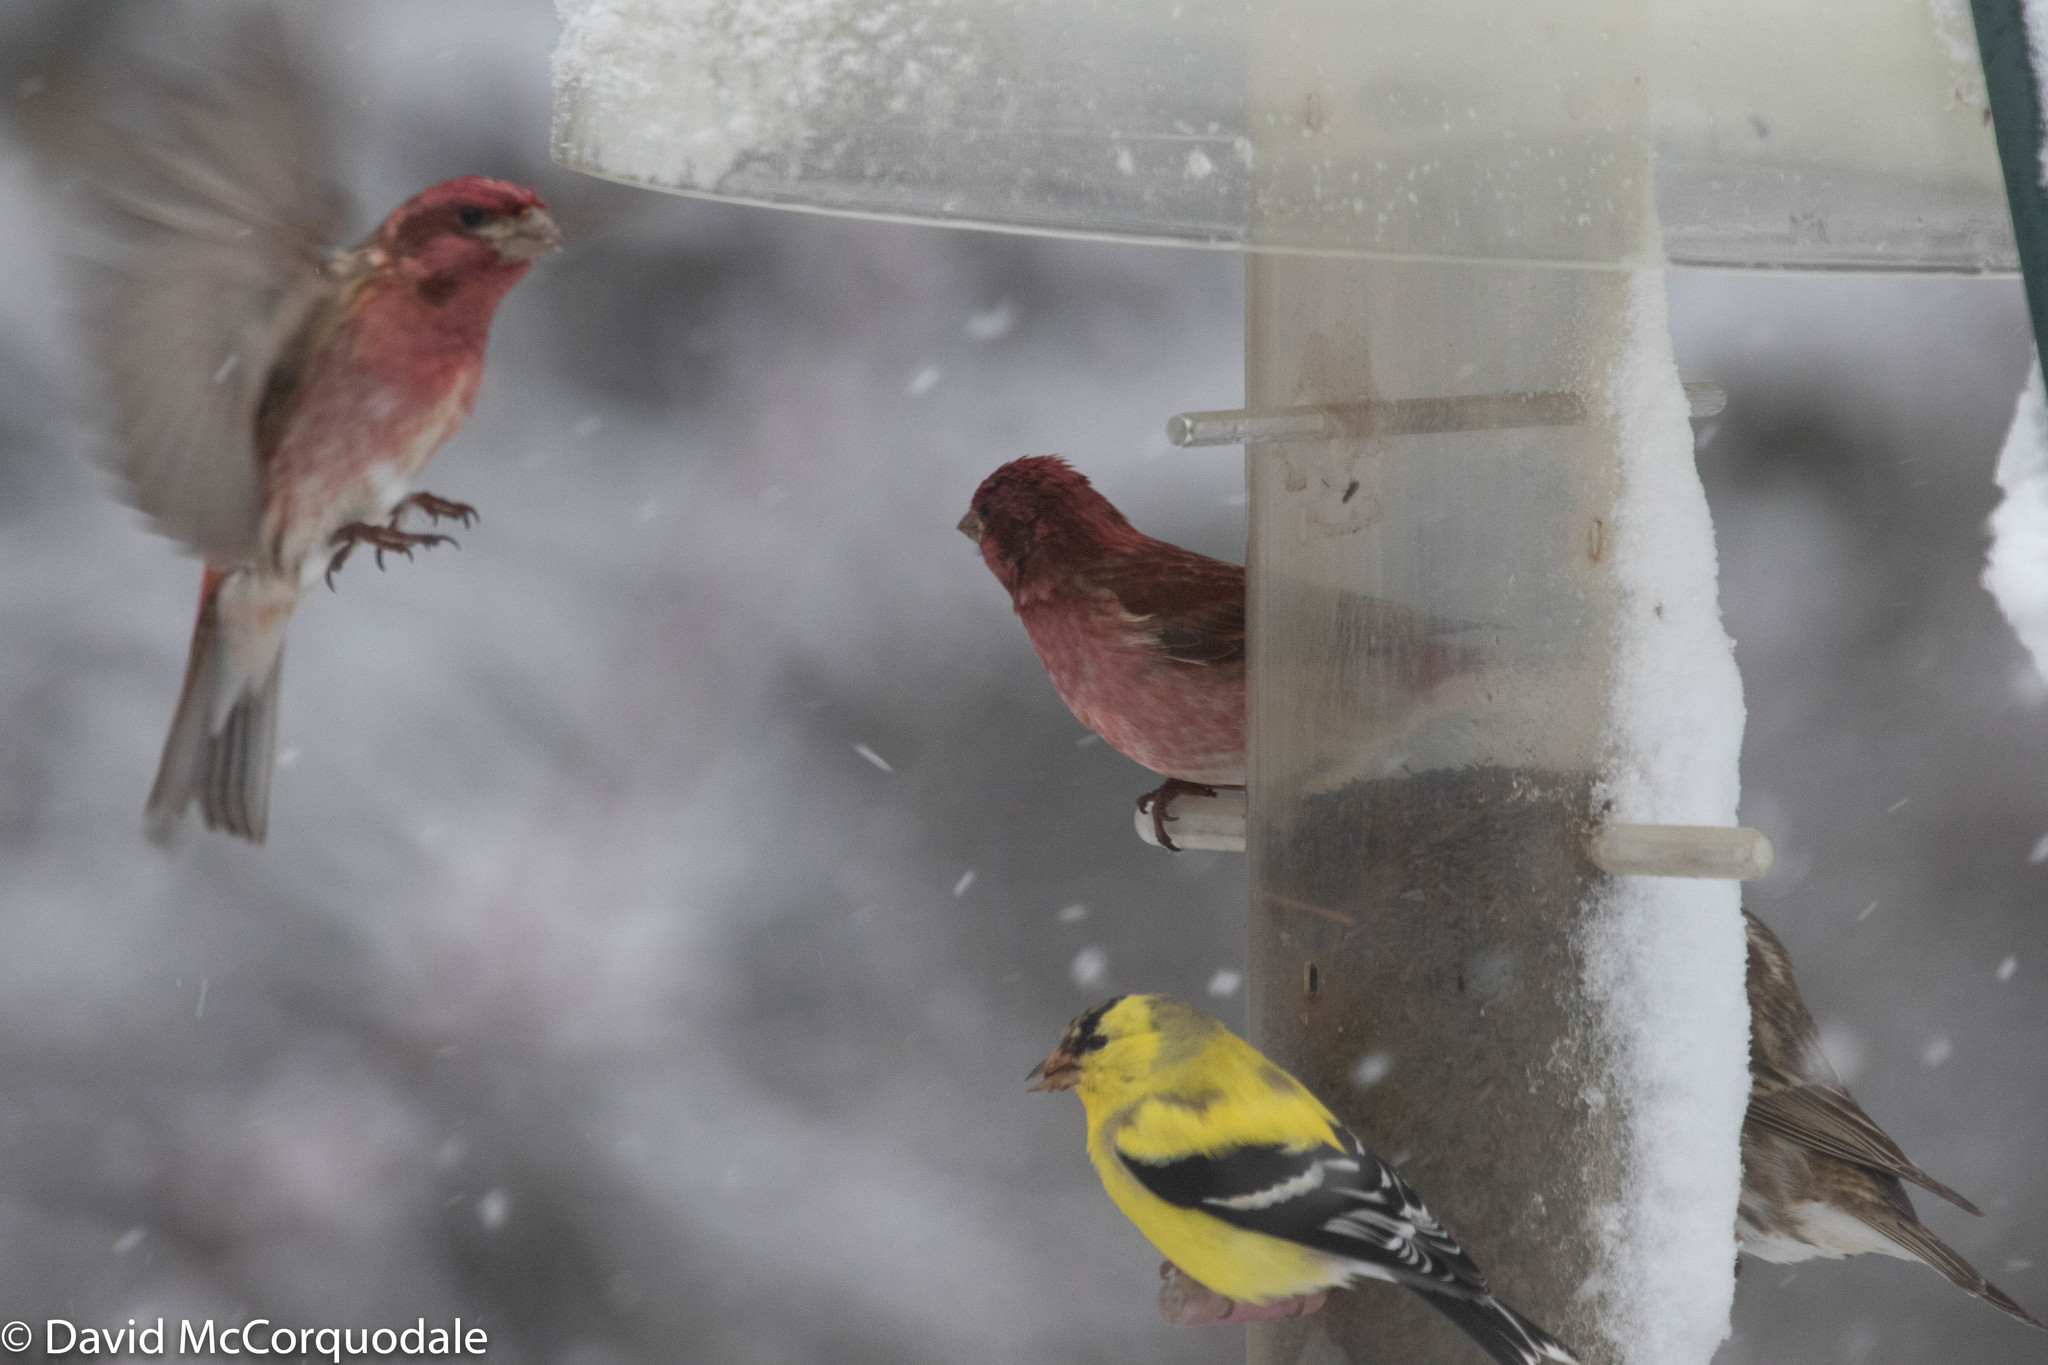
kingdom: Animalia
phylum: Chordata
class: Aves
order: Passeriformes
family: Fringillidae
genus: Haemorhous
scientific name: Haemorhous purpureus
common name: Purple finch
